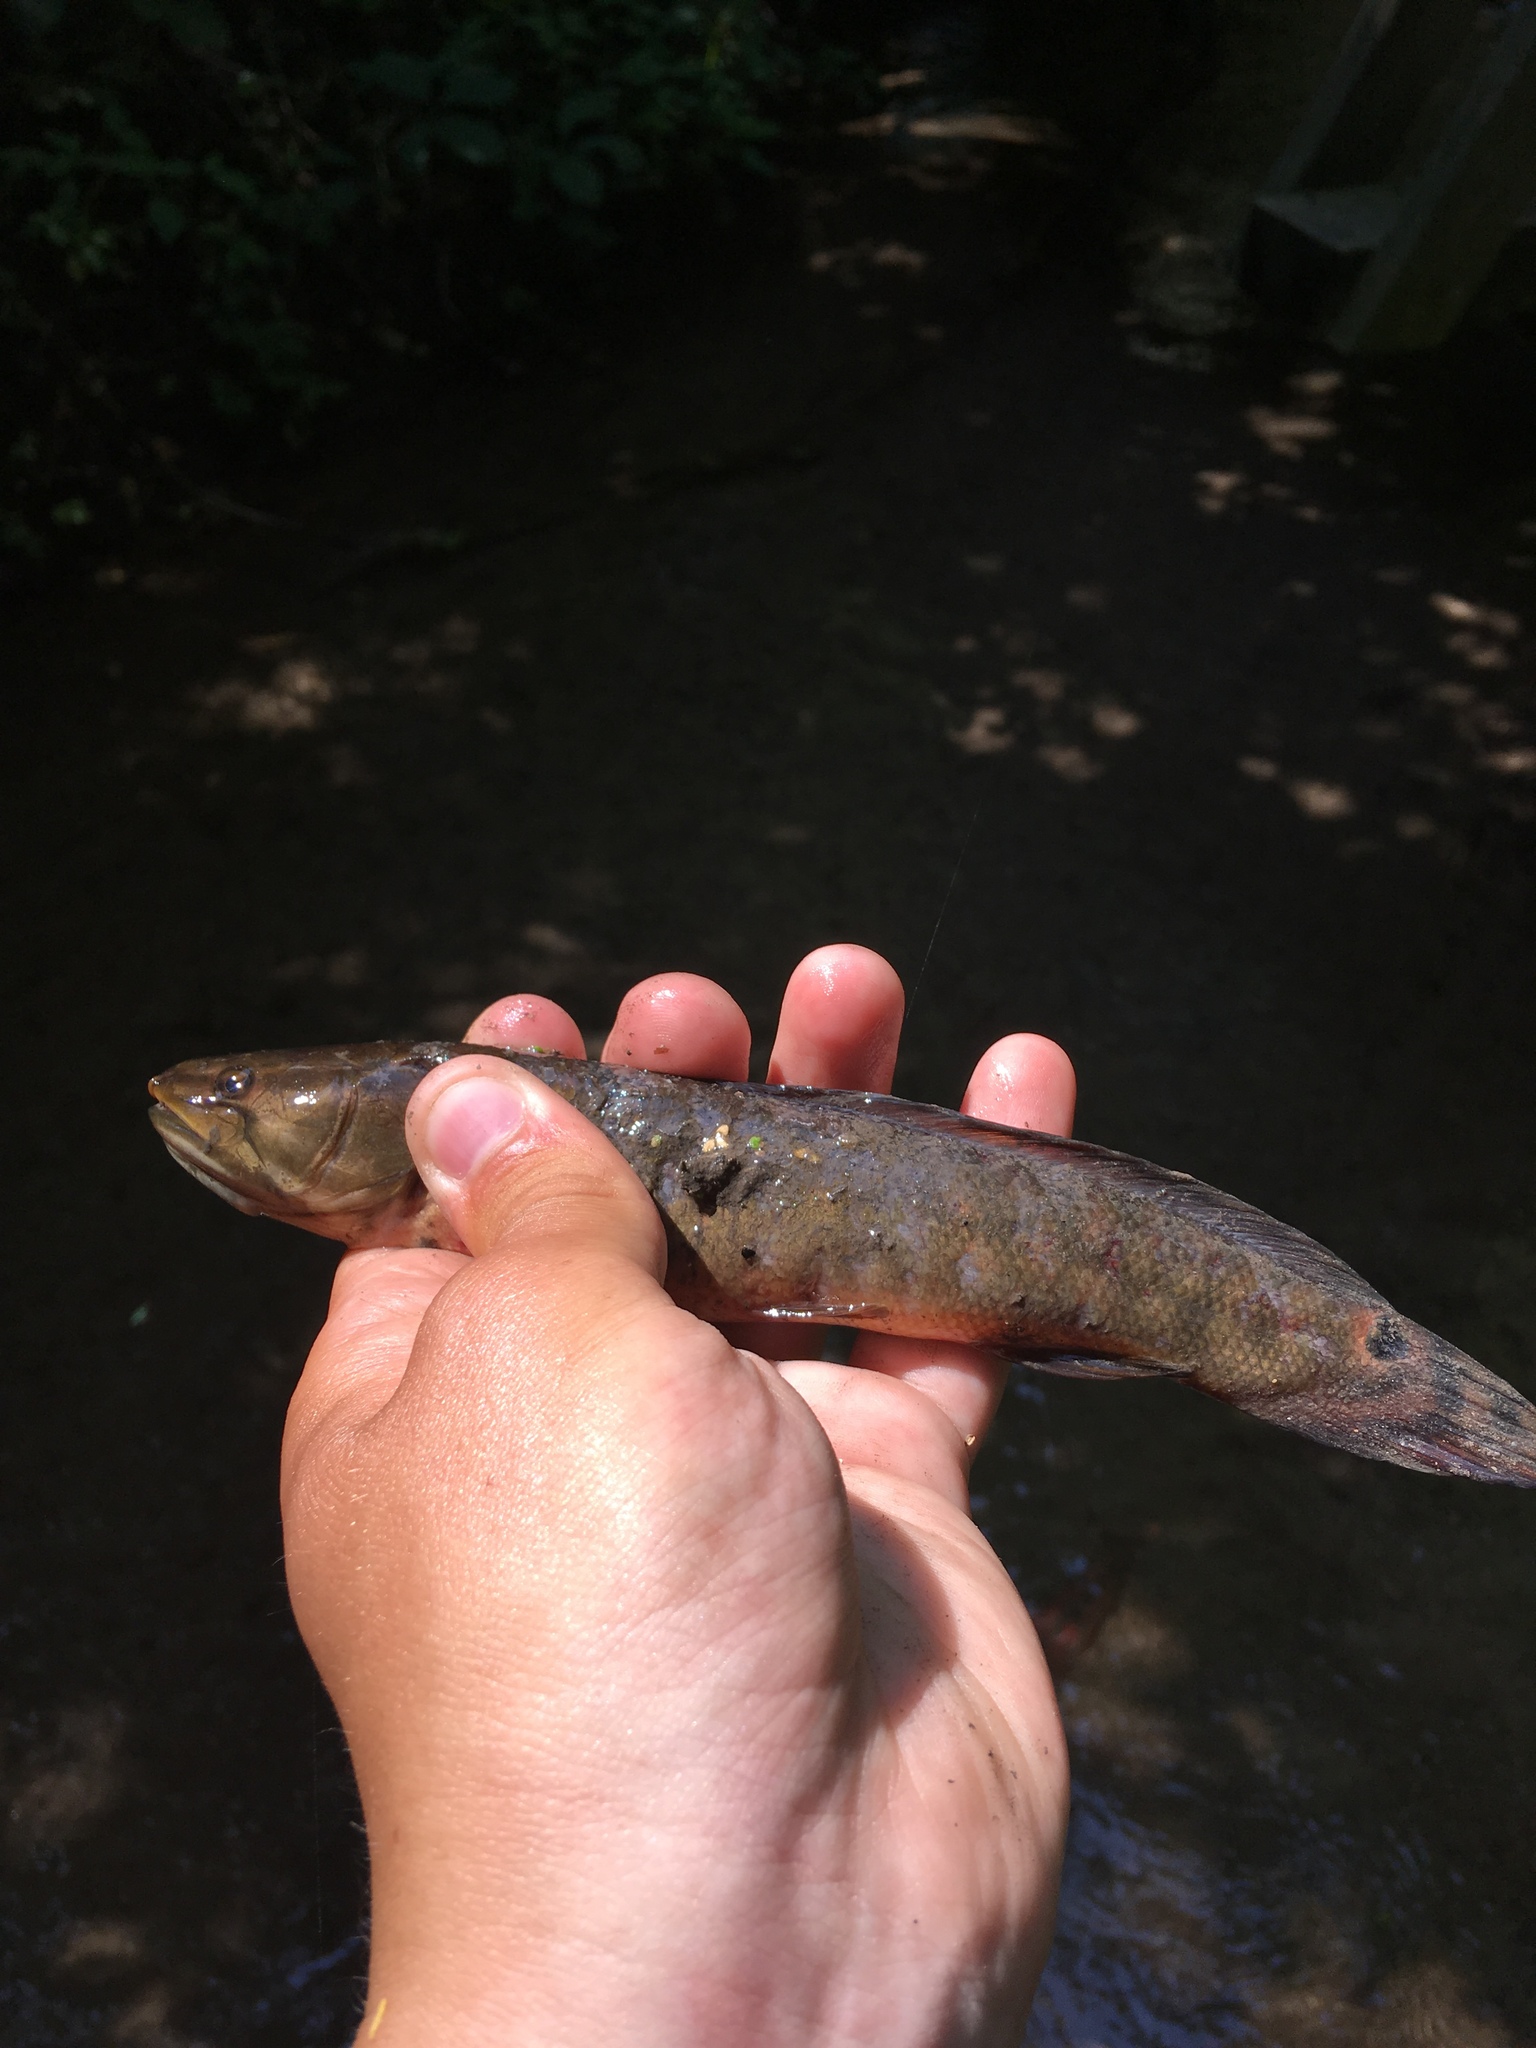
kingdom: Animalia
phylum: Chordata
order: Amiiformes
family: Amiidae
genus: Amia
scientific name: Amia calva
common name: Bowfin
